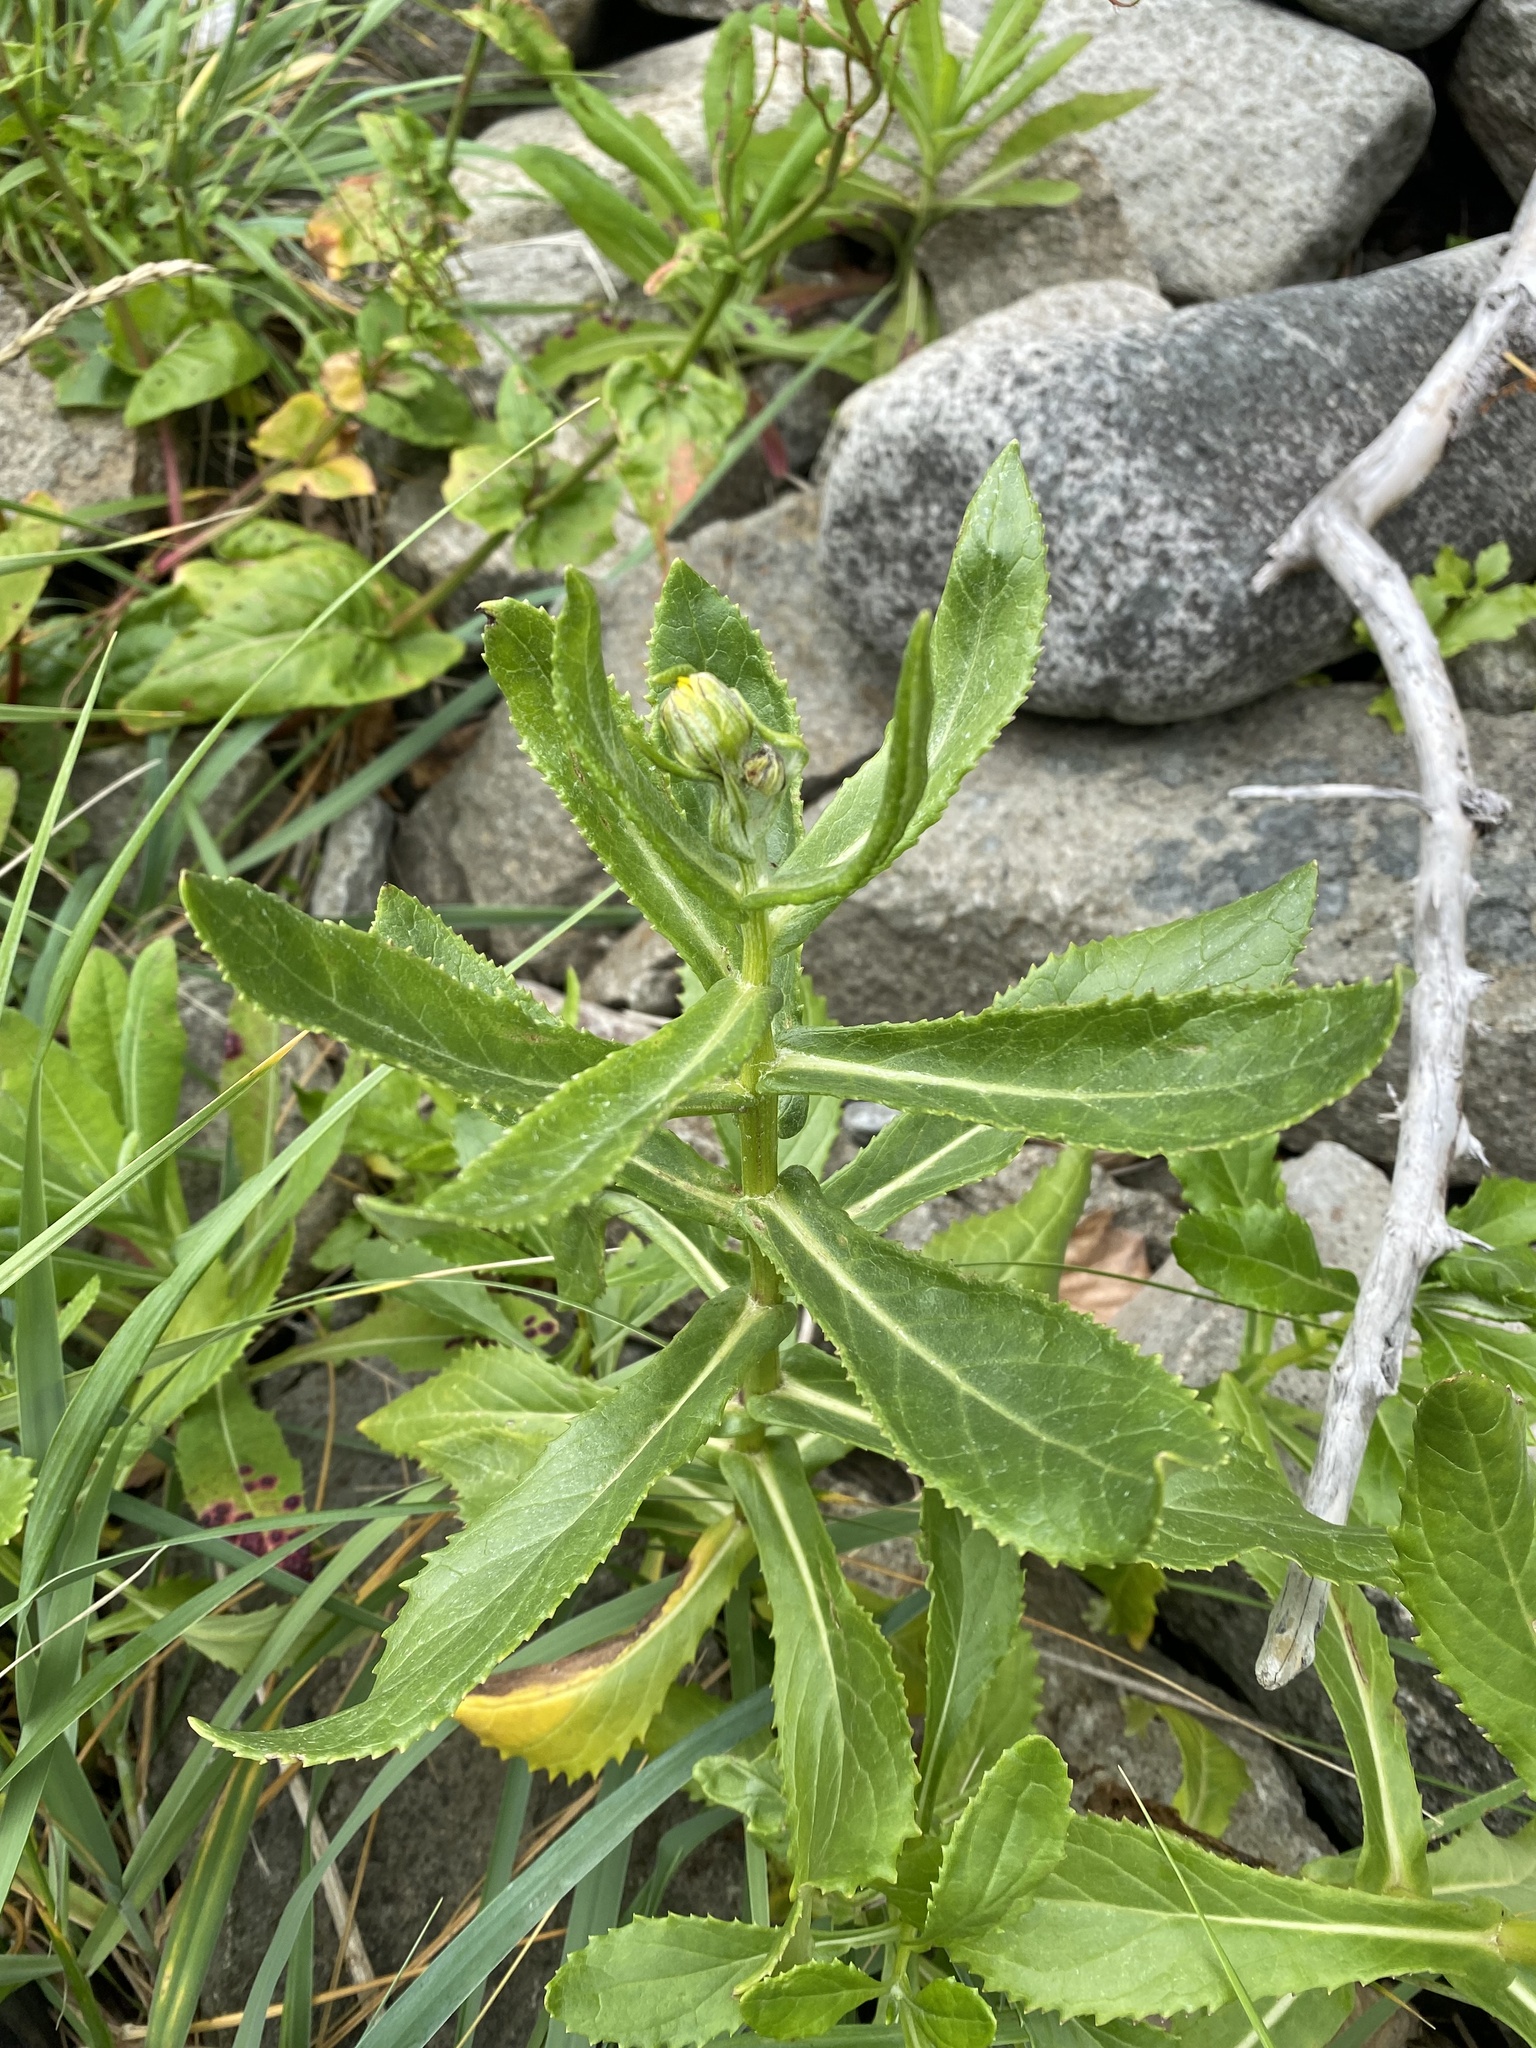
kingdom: Plantae
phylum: Tracheophyta
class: Magnoliopsida
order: Asterales
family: Asteraceae
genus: Jacobaea
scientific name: Jacobaea pseudoarnica
